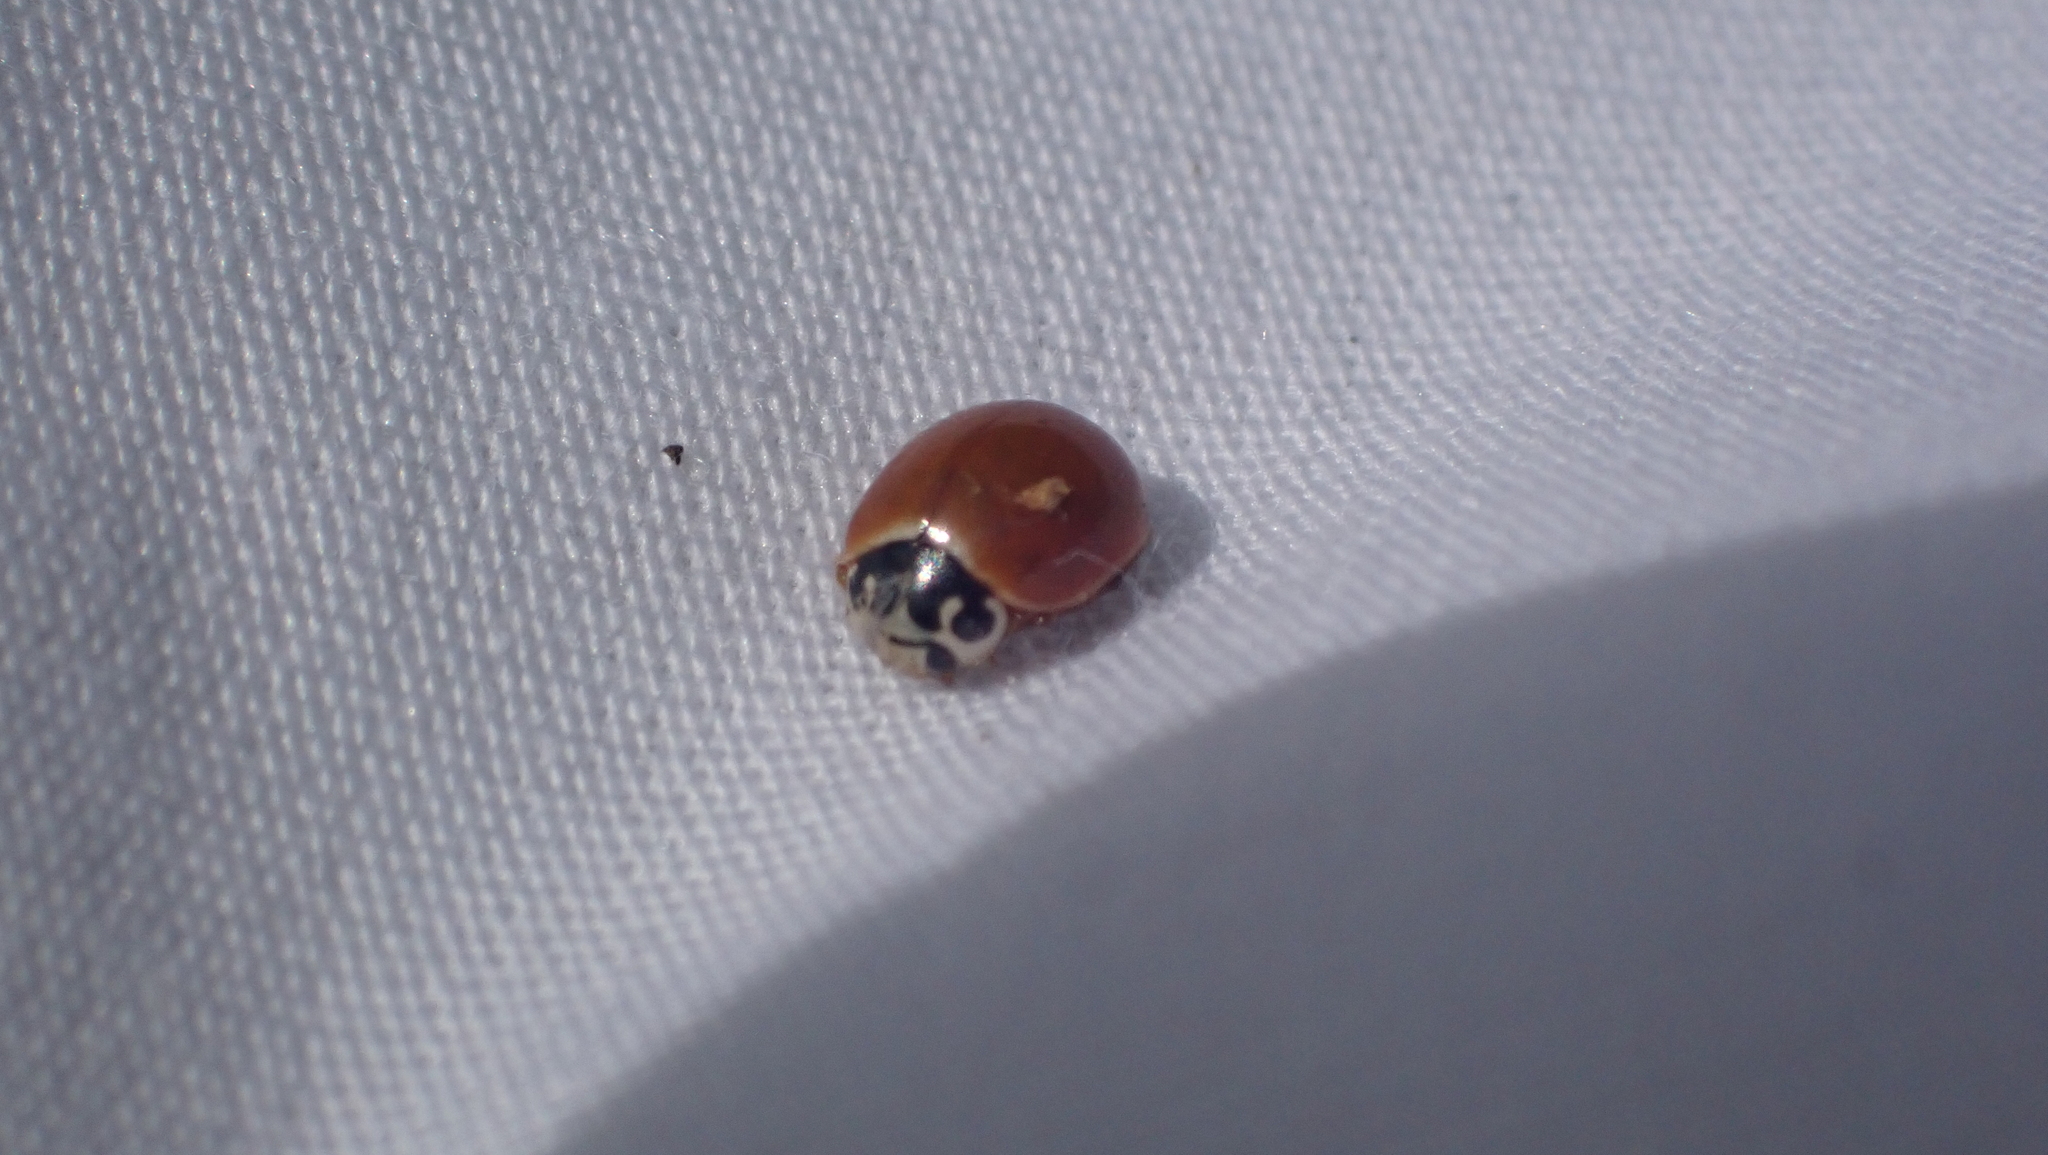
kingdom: Animalia
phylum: Arthropoda
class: Insecta
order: Coleoptera
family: Coccinellidae
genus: Cycloneda
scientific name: Cycloneda munda
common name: Polished lady beetle
